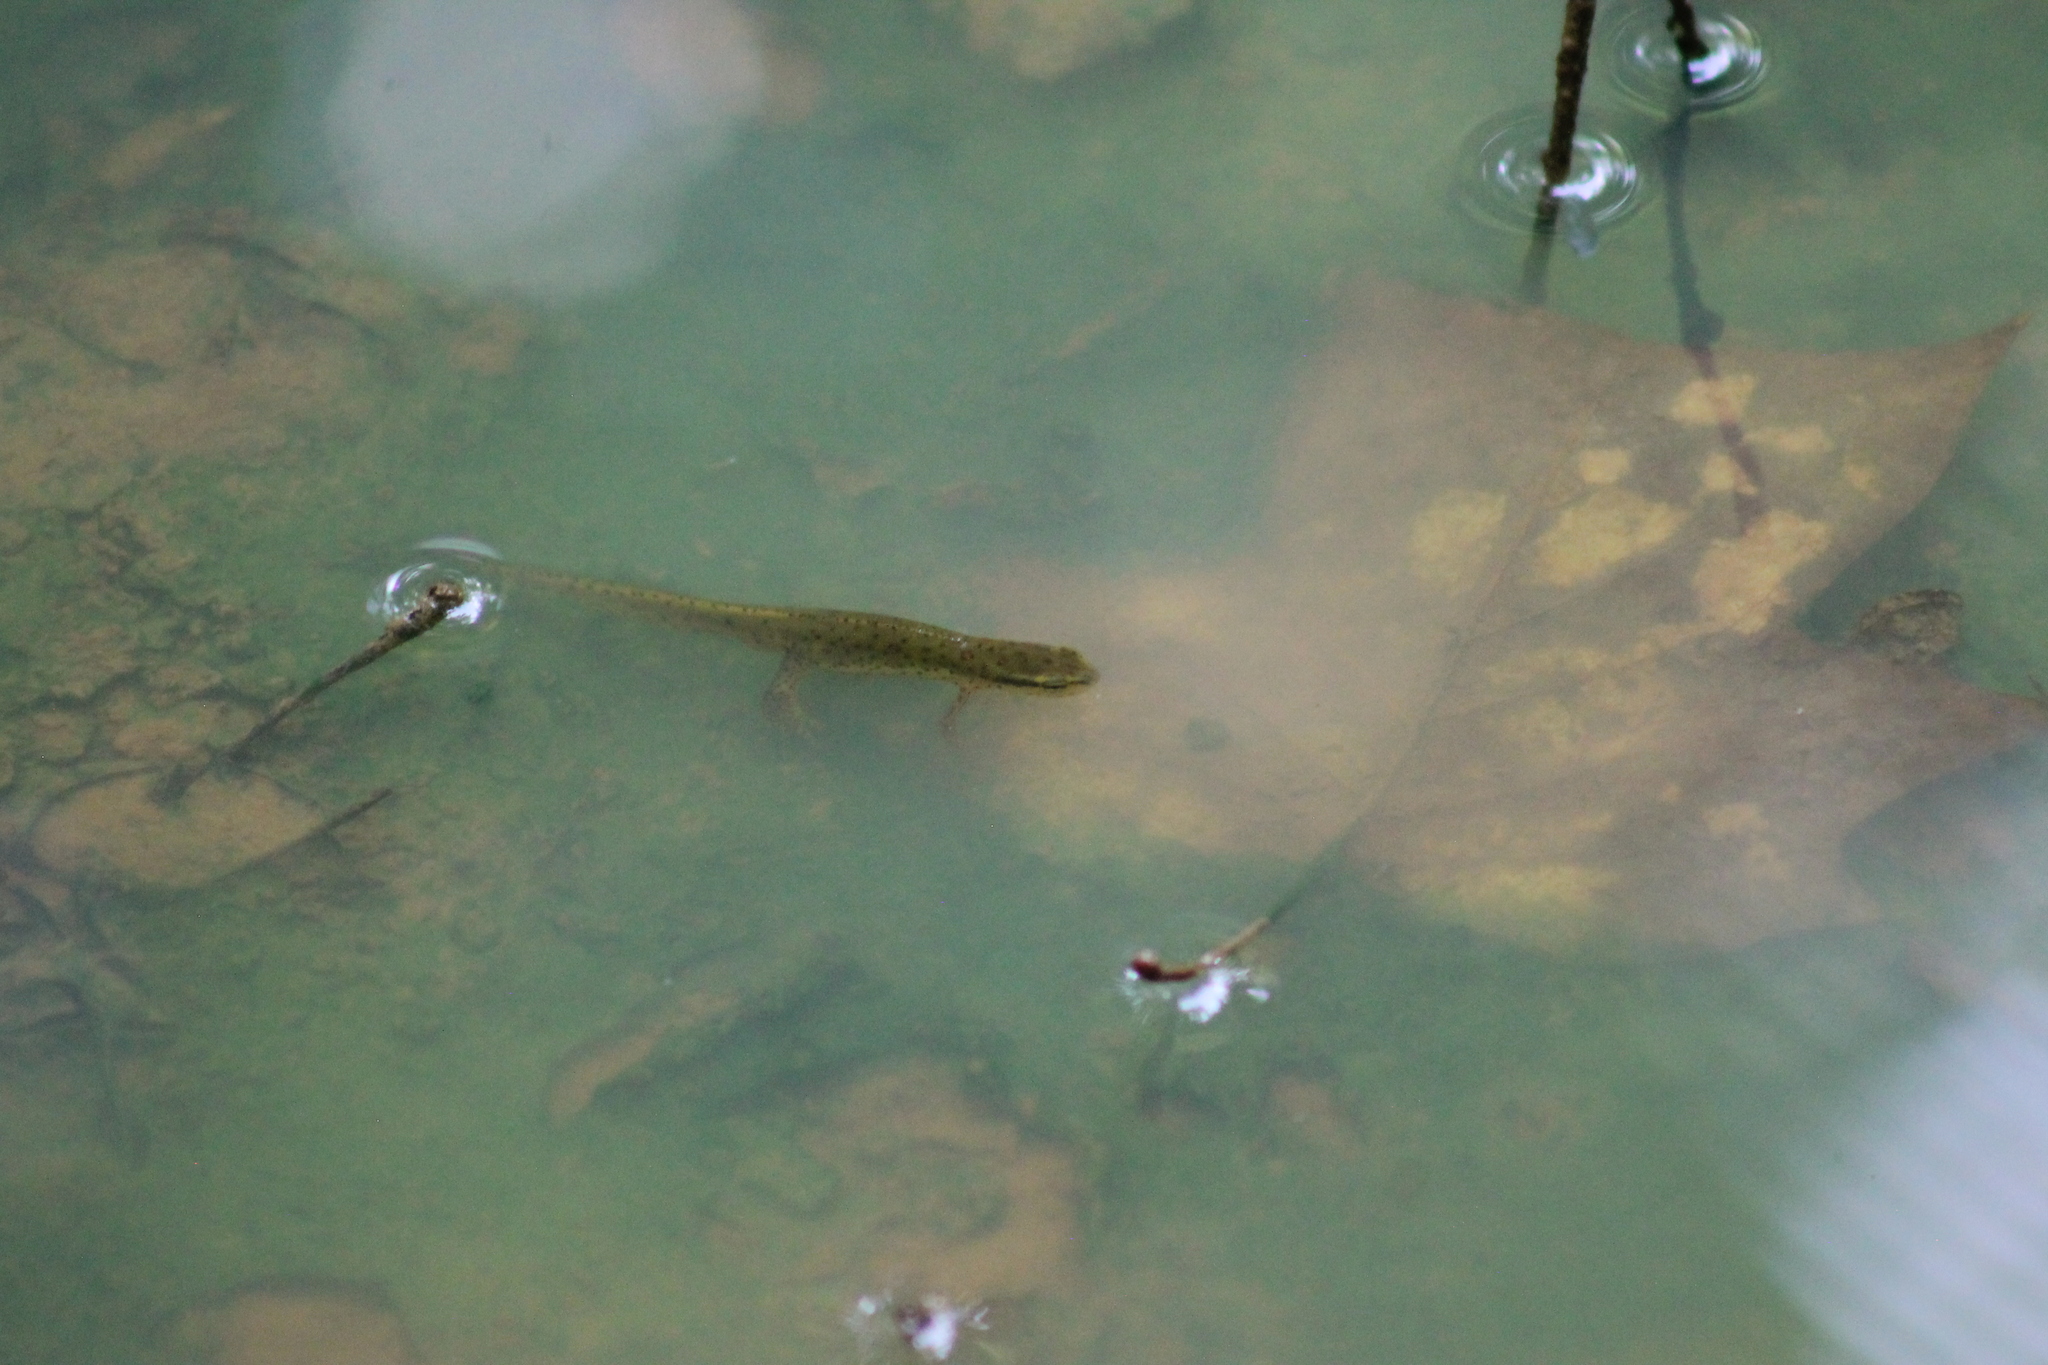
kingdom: Animalia
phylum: Chordata
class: Amphibia
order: Caudata
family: Salamandridae
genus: Notophthalmus
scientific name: Notophthalmus viridescens
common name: Eastern newt
